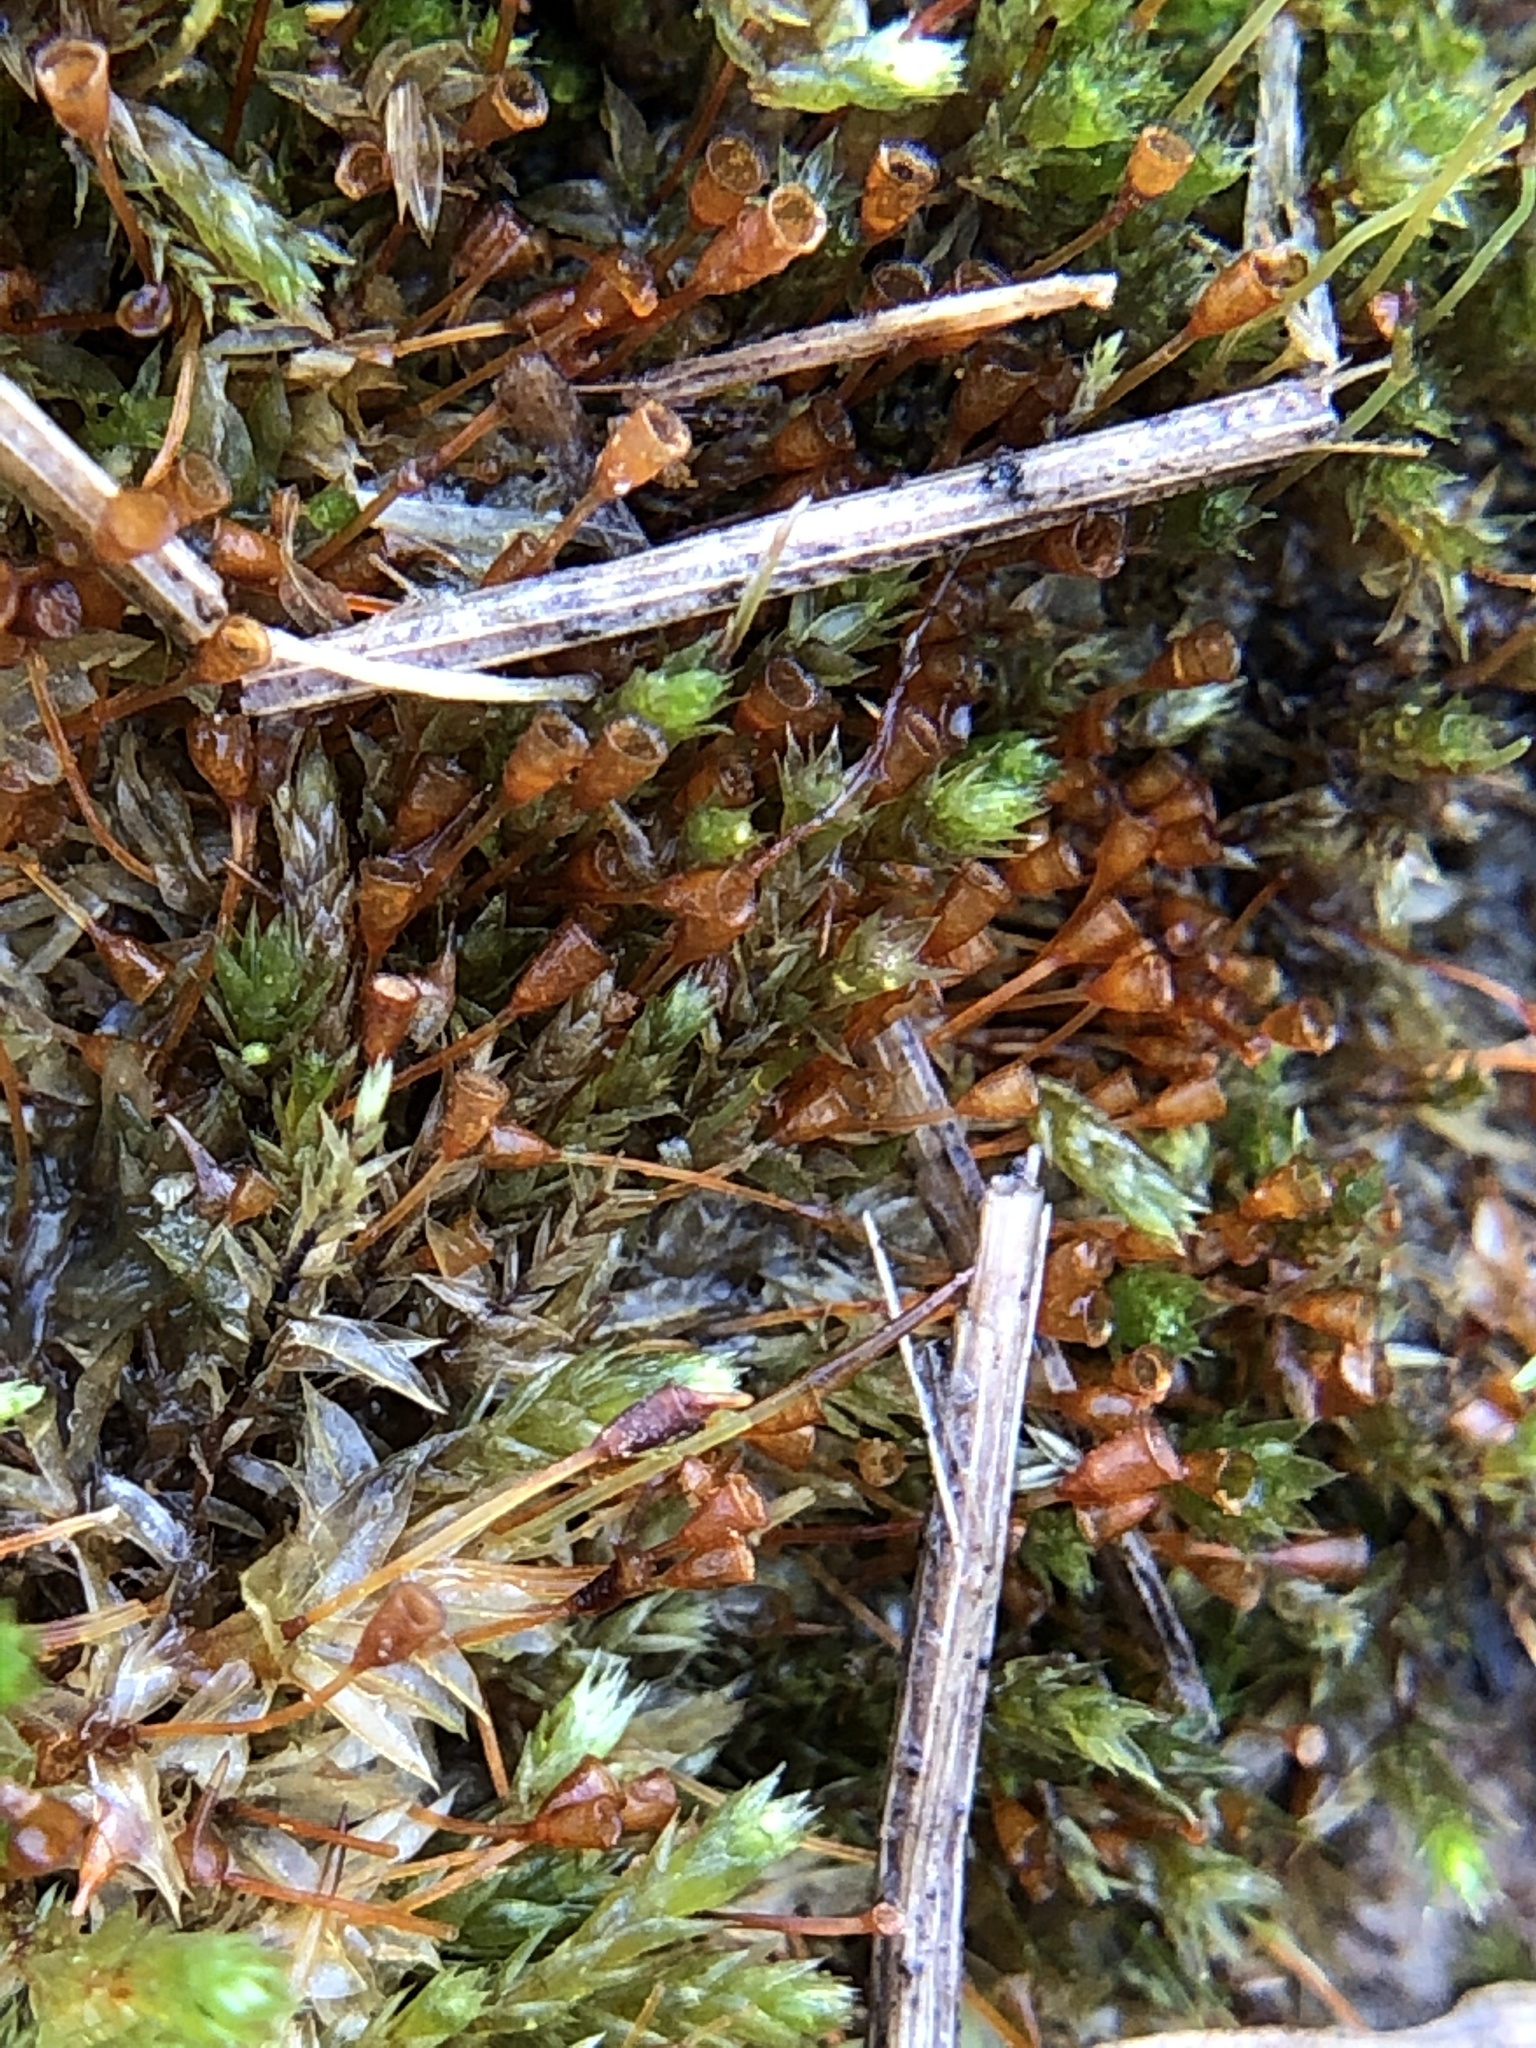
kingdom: Plantae
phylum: Bryophyta
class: Bryopsida
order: Pottiales
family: Pottiaceae
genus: Tortula
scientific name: Tortula truncata
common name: Truncated screw moss
